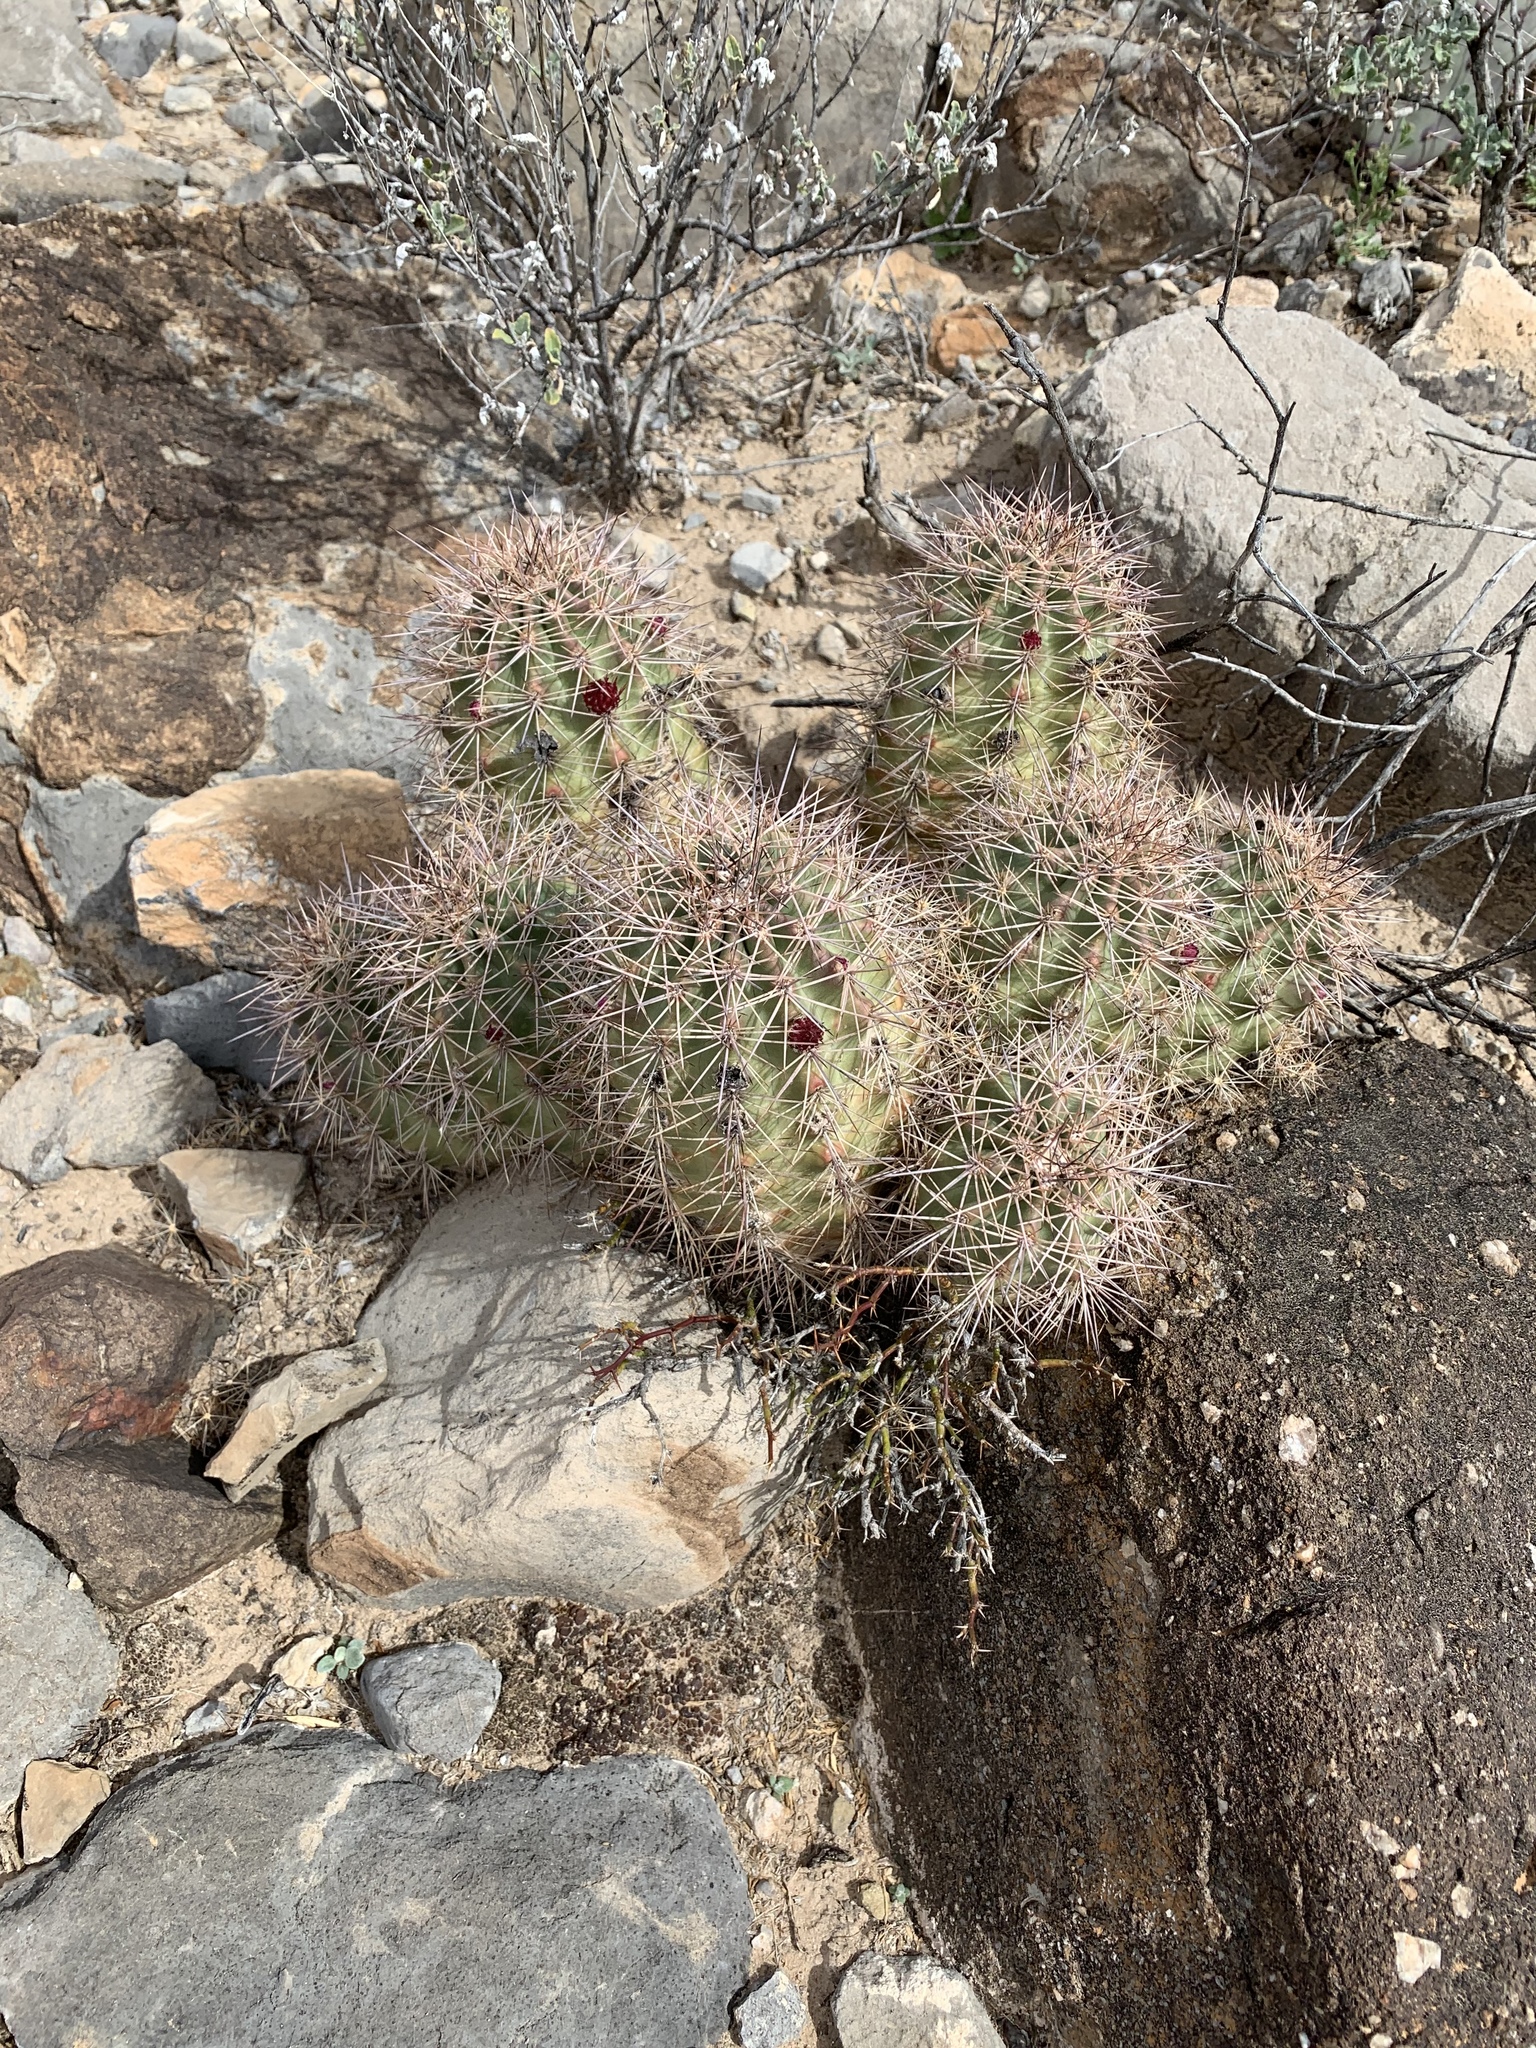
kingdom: Plantae
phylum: Tracheophyta
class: Magnoliopsida
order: Caryophyllales
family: Cactaceae
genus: Echinocereus
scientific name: Echinocereus coccineus
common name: Scarlet hedgehog cactus
